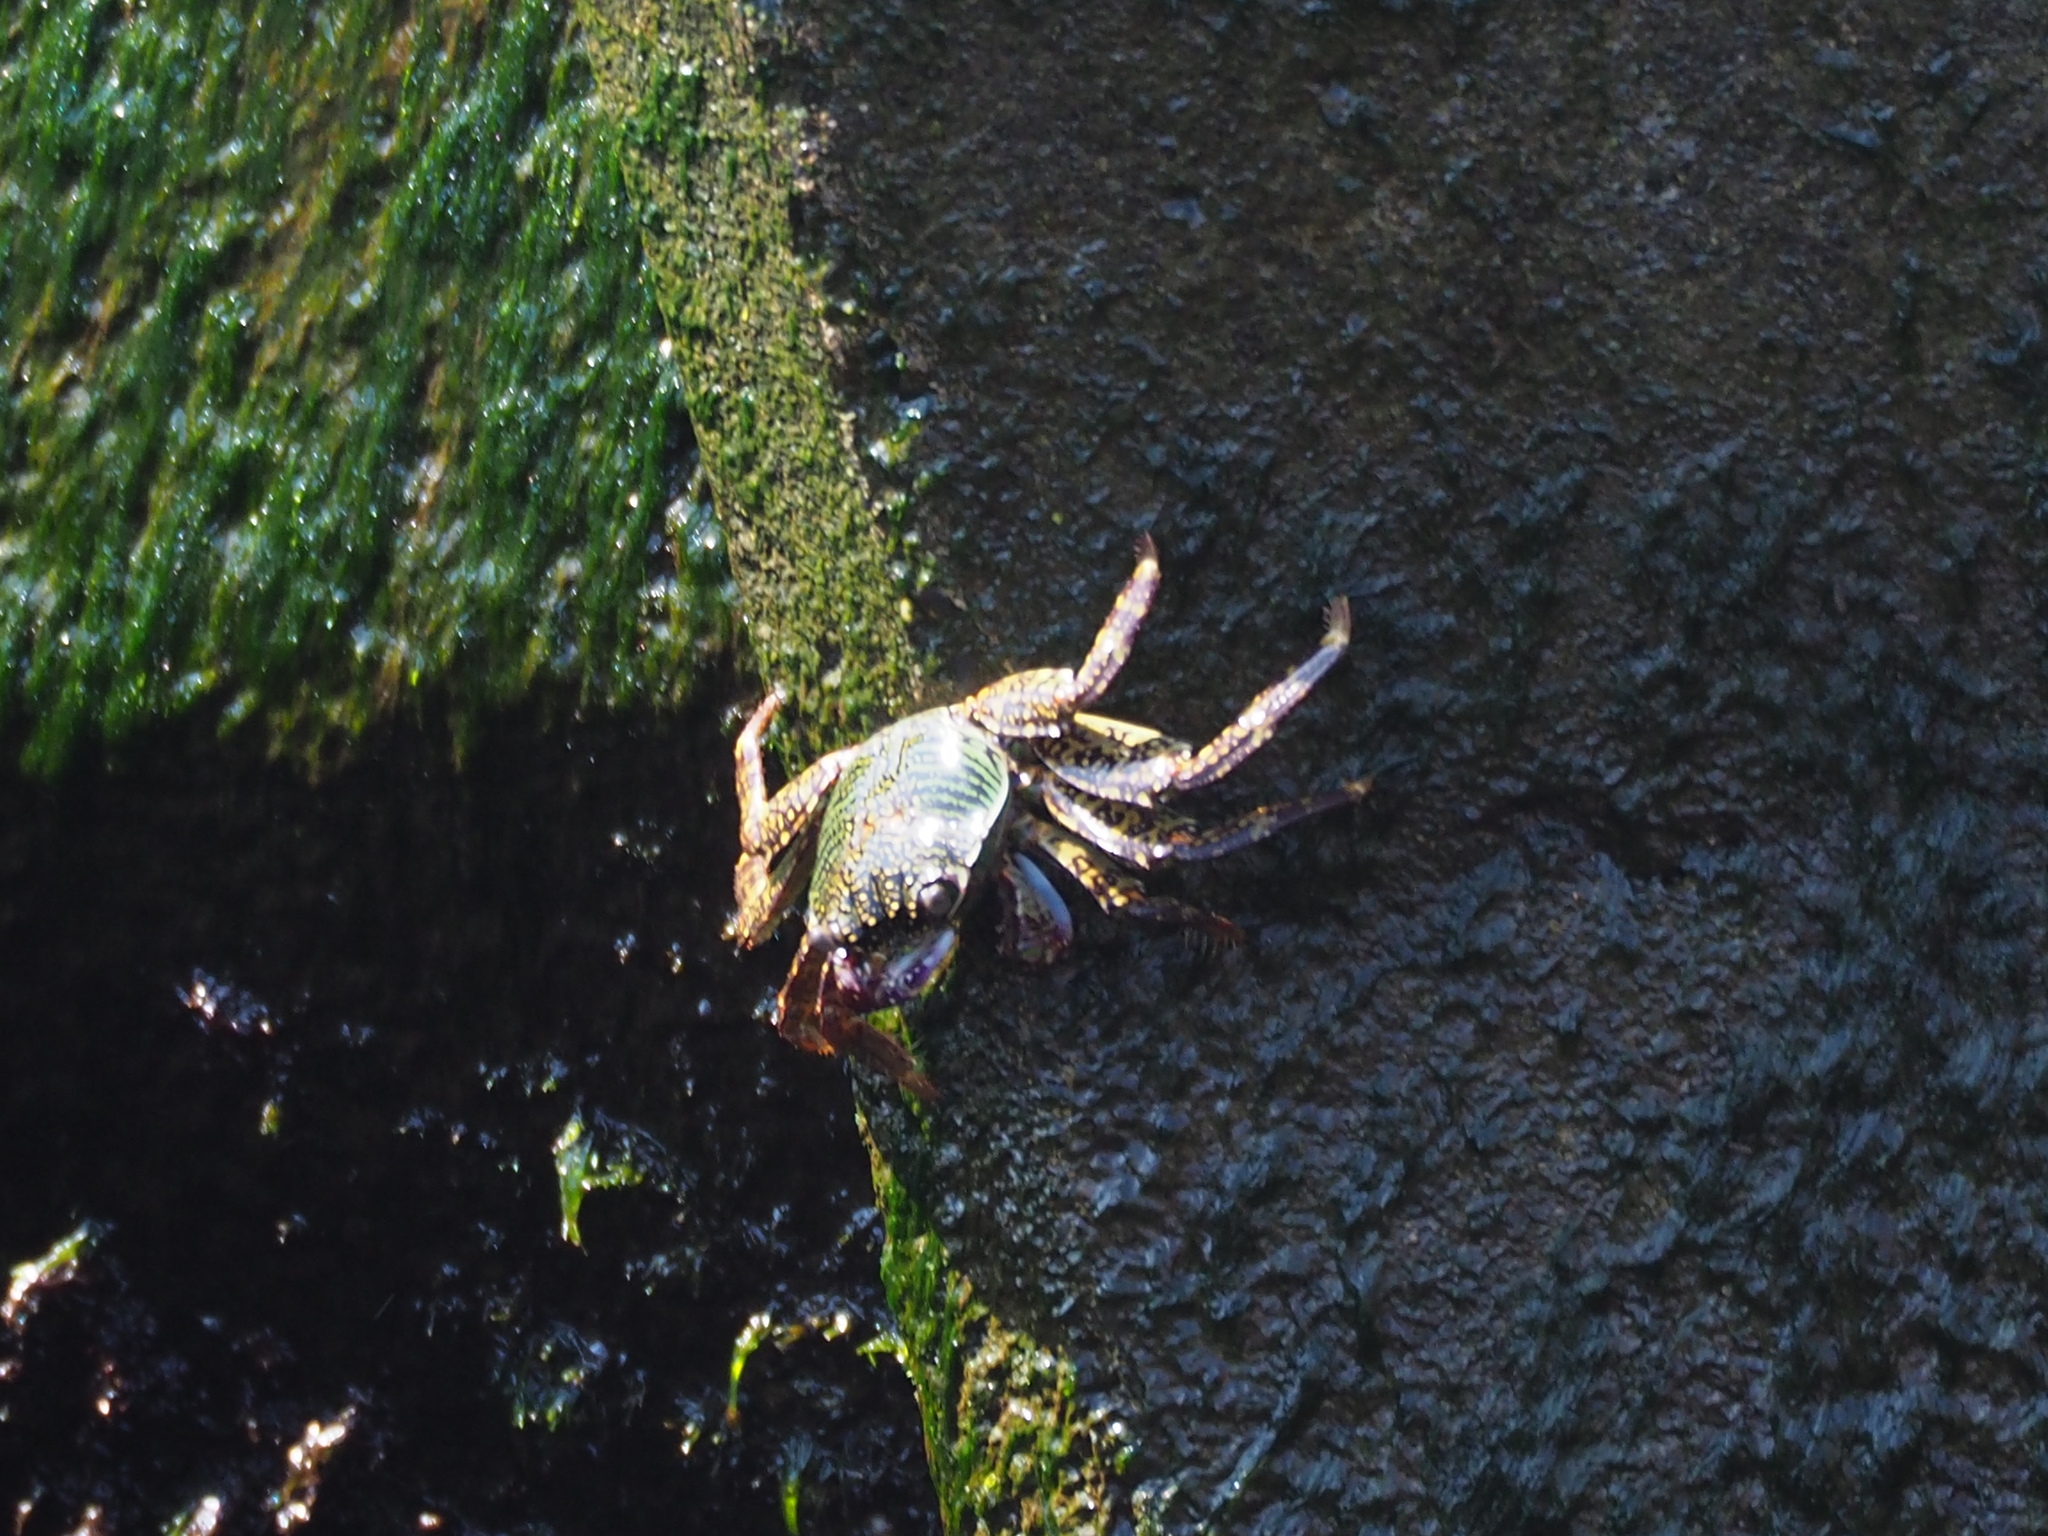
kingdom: Animalia
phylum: Arthropoda
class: Malacostraca
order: Decapoda
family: Grapsidae
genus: Grapsus
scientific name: Grapsus albolineatus
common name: Mottled lightfoot crab
